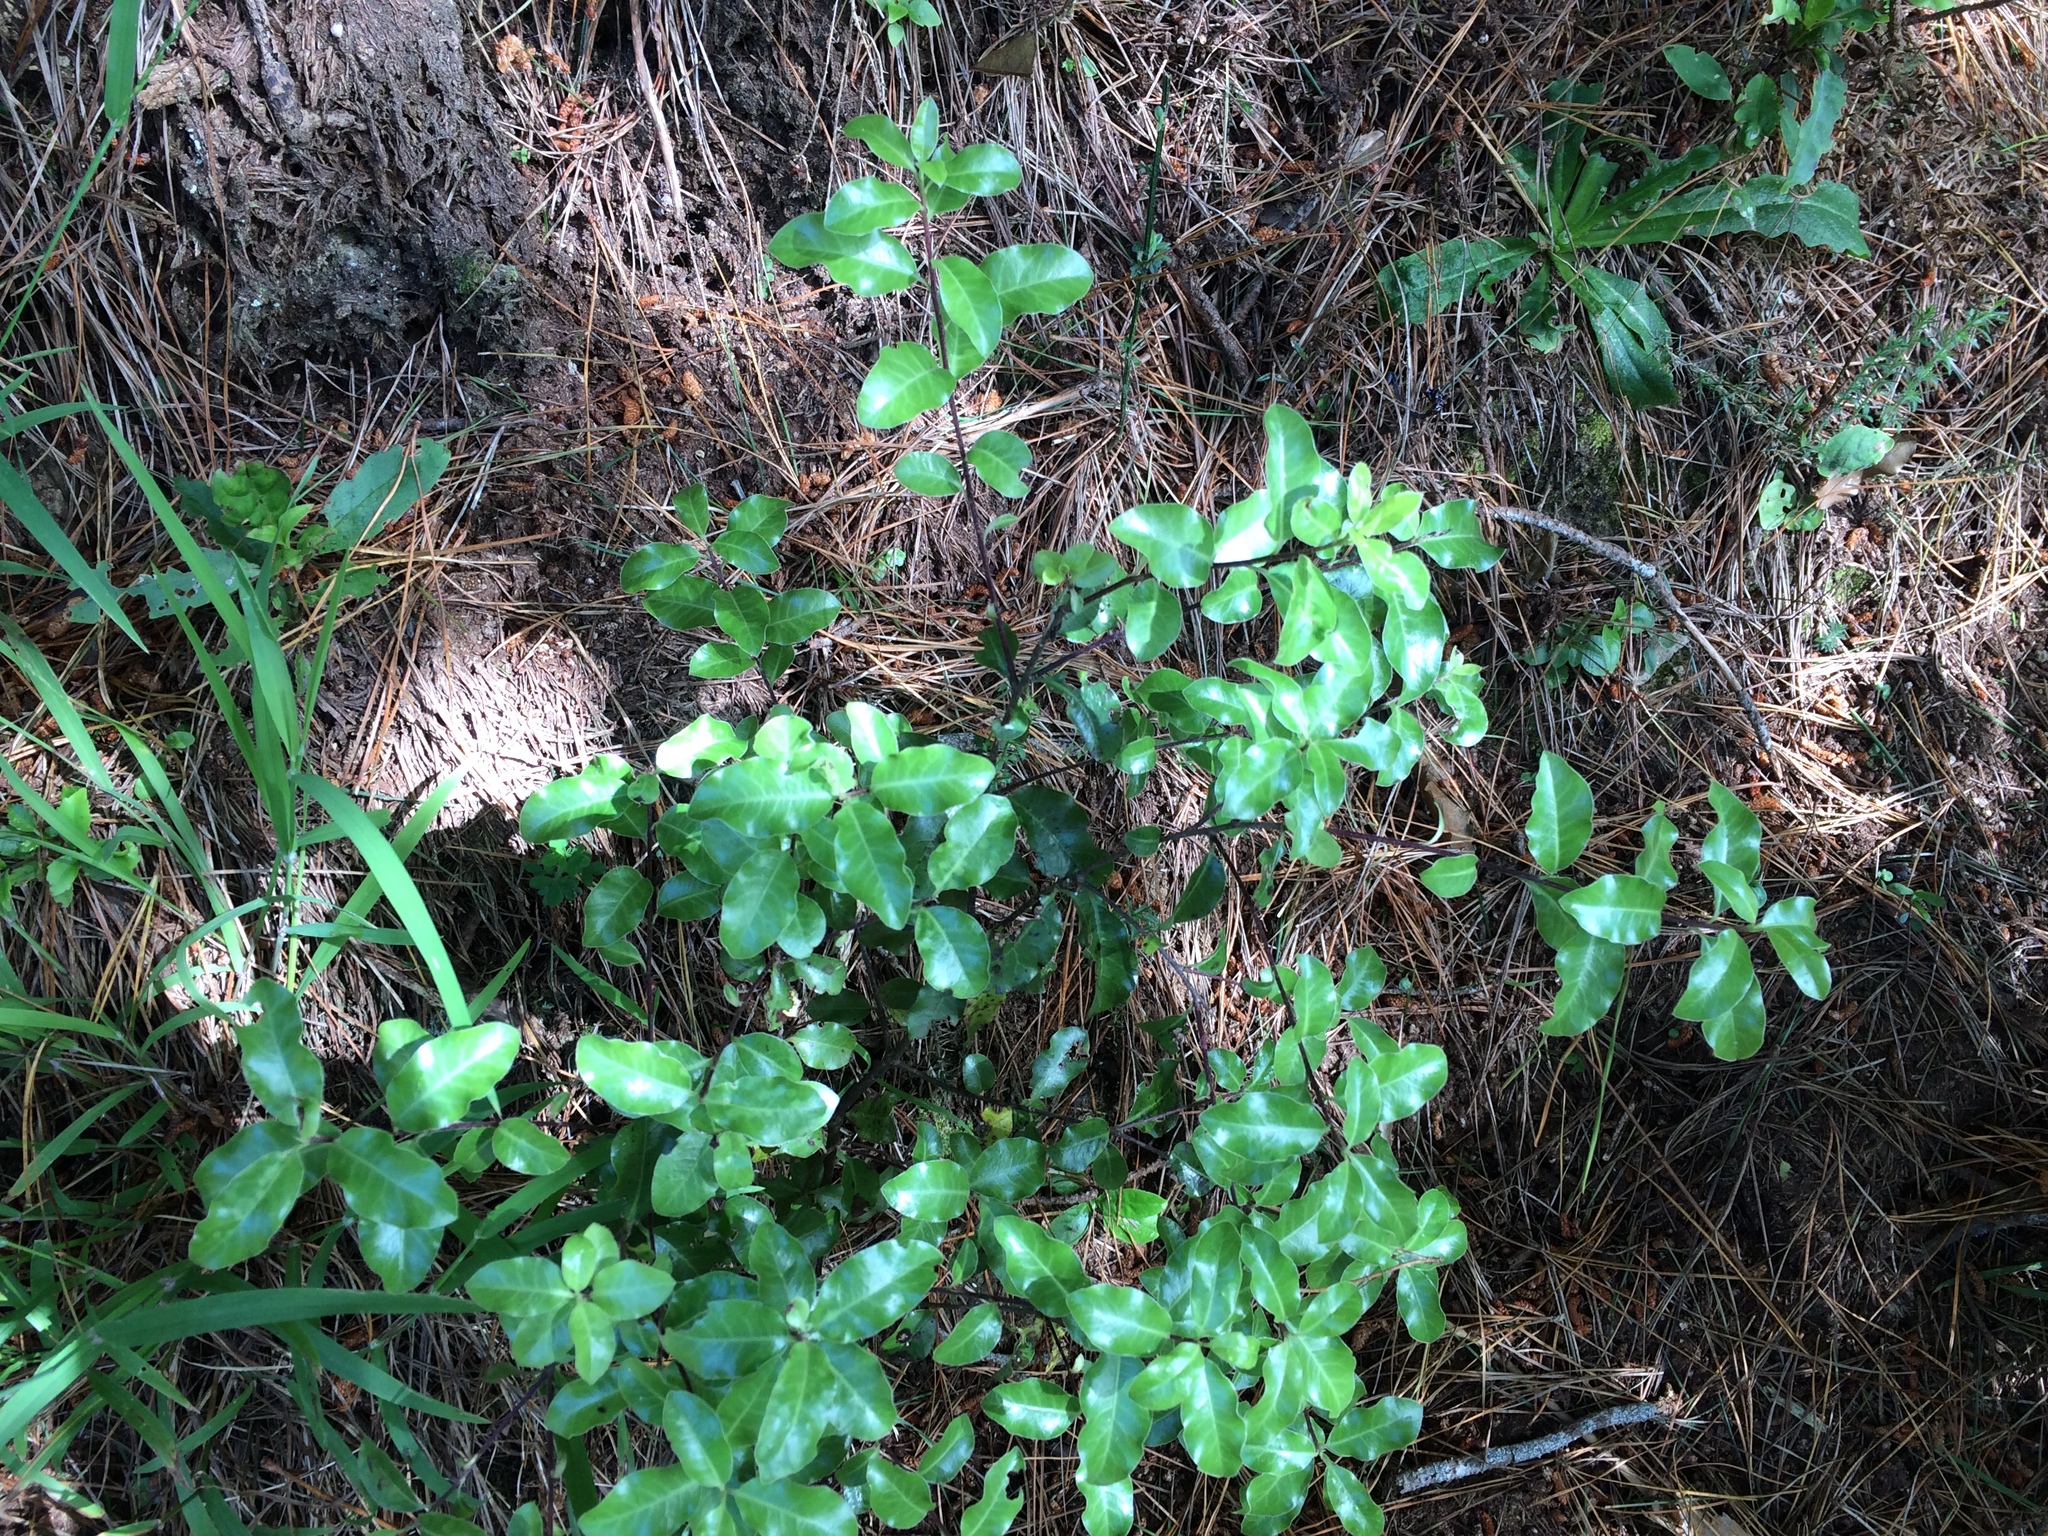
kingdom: Plantae
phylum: Tracheophyta
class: Magnoliopsida
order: Apiales
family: Pittosporaceae
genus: Pittosporum
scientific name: Pittosporum tenuifolium
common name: Kohuhu
